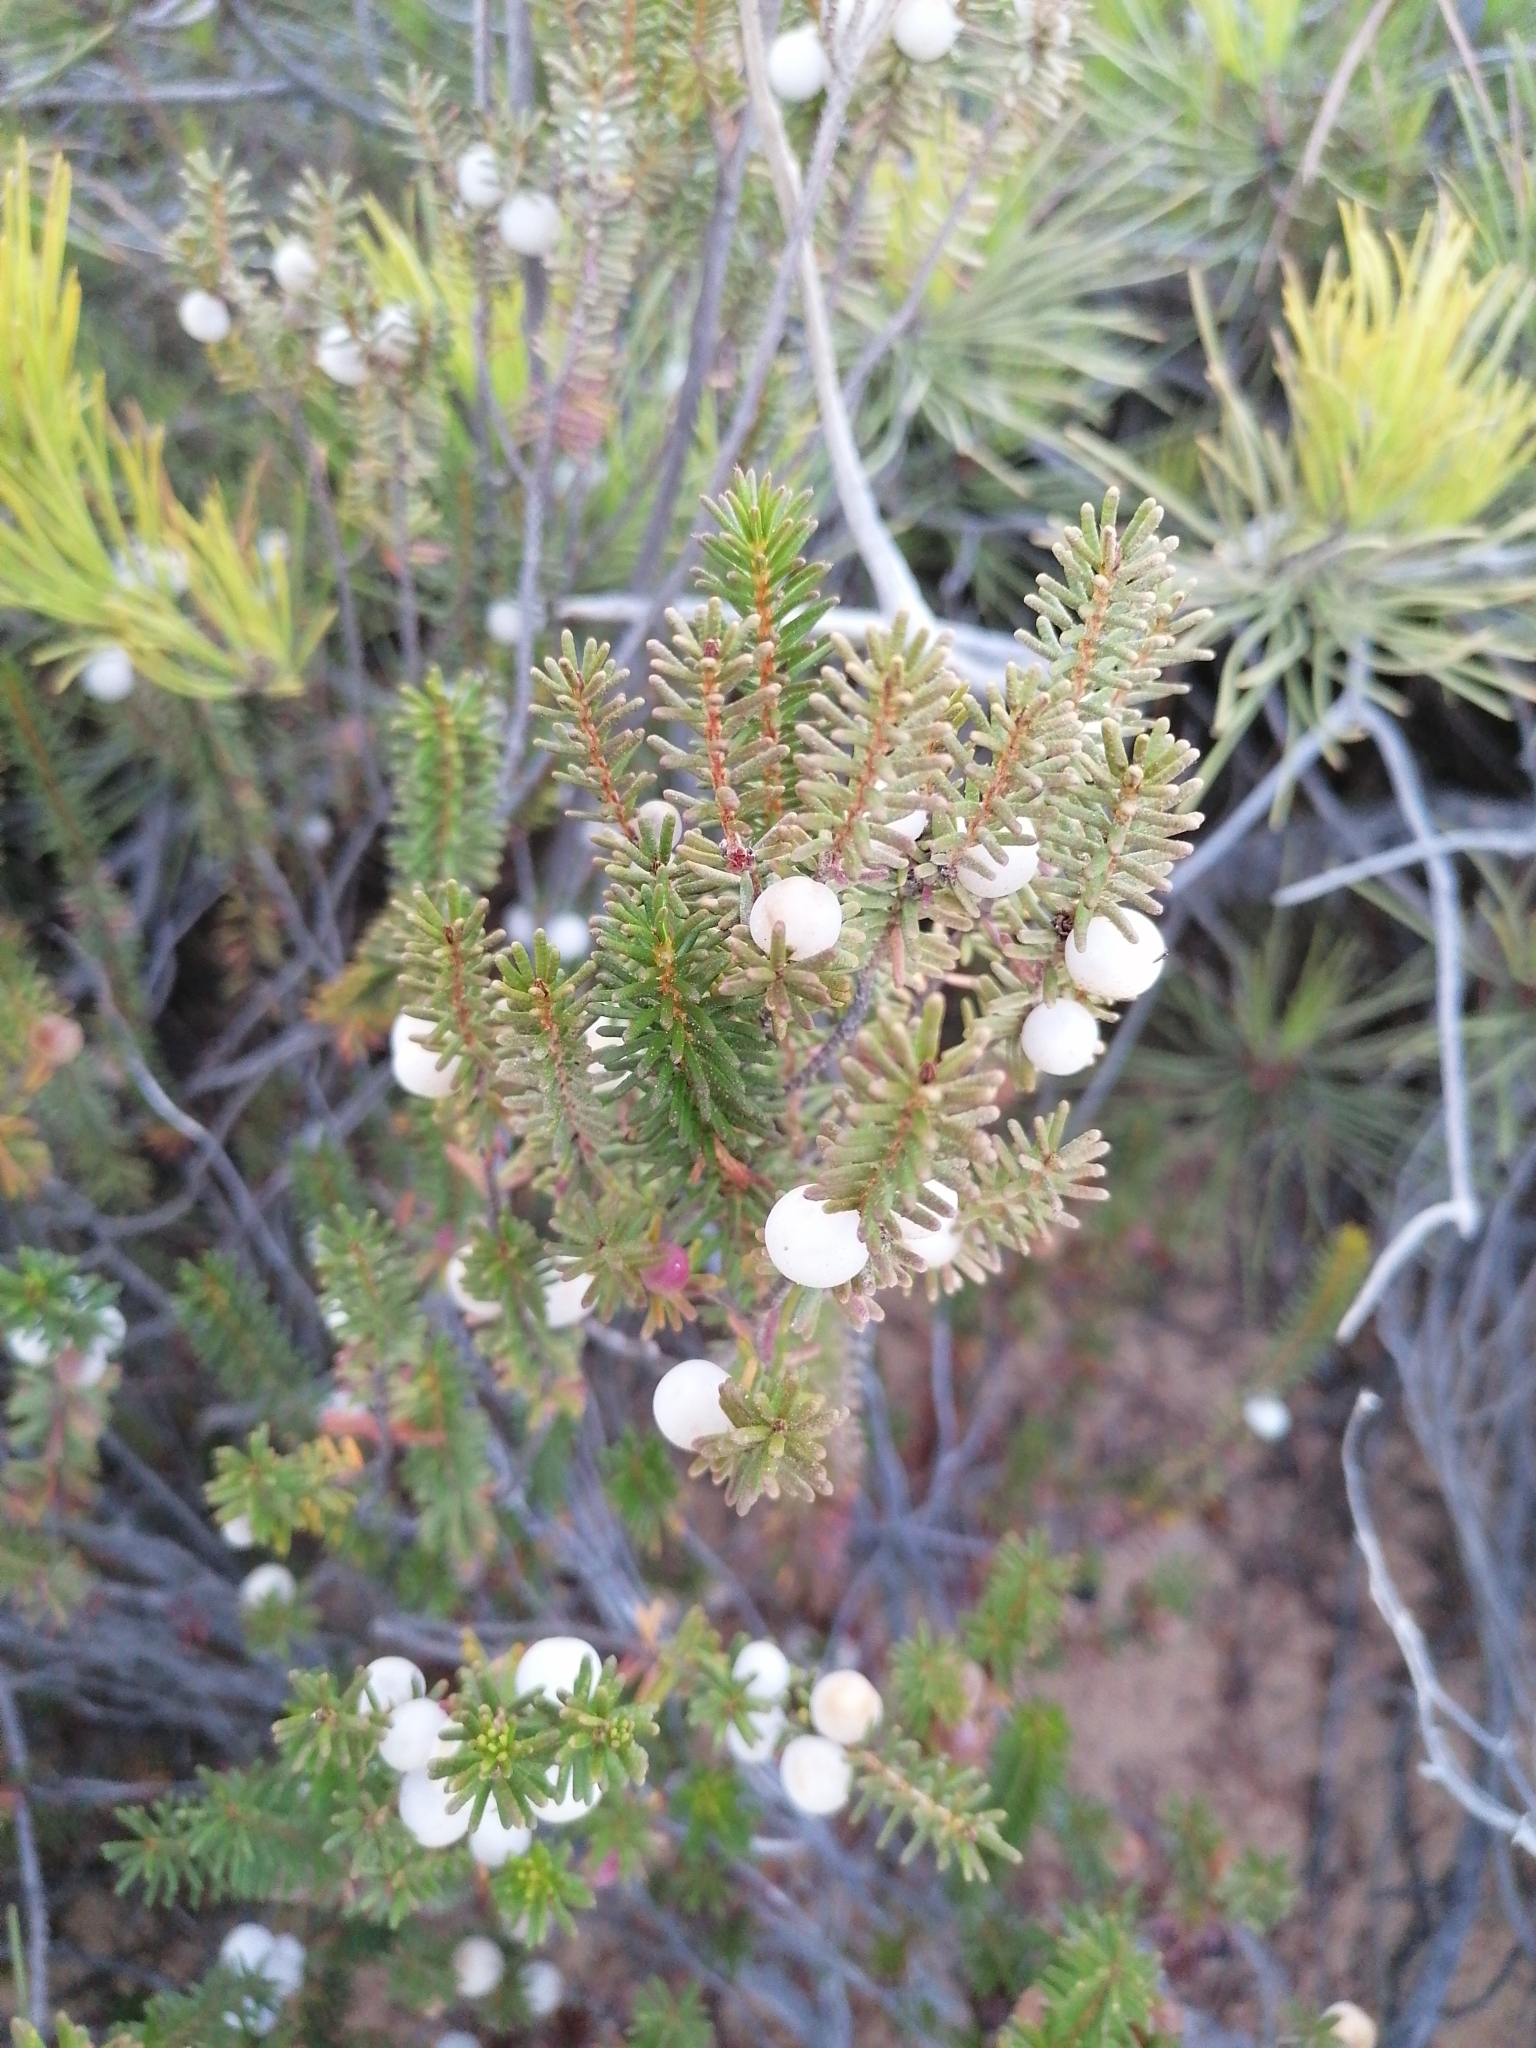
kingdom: Plantae
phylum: Tracheophyta
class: Magnoliopsida
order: Ericales
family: Ericaceae
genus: Corema
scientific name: Corema album
